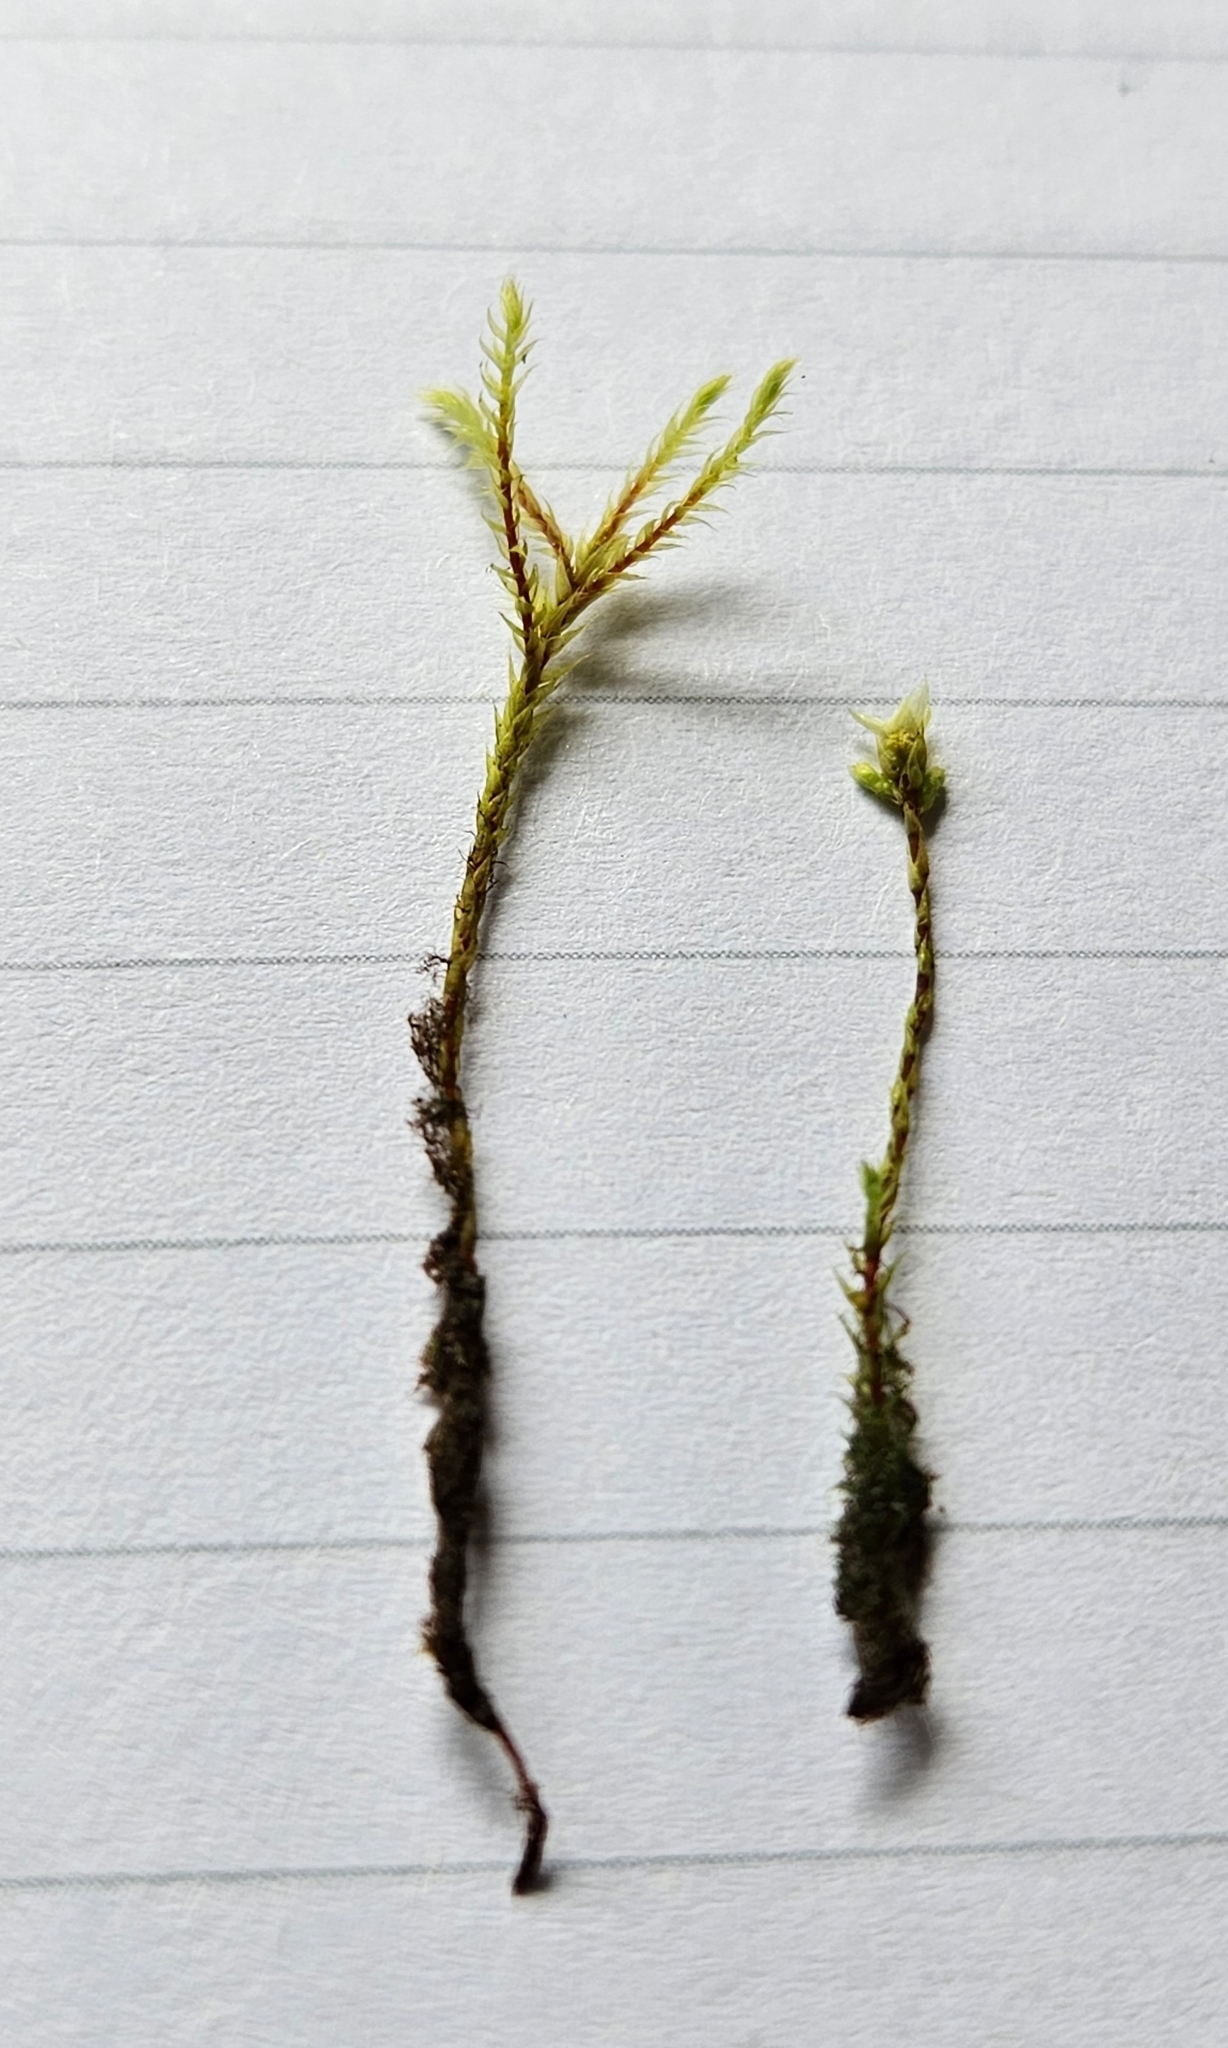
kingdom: Plantae
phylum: Bryophyta
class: Bryopsida
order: Bartramiales
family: Bartramiaceae
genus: Philonotis
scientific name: Philonotis caespitosa
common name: Tufted apple-moss
